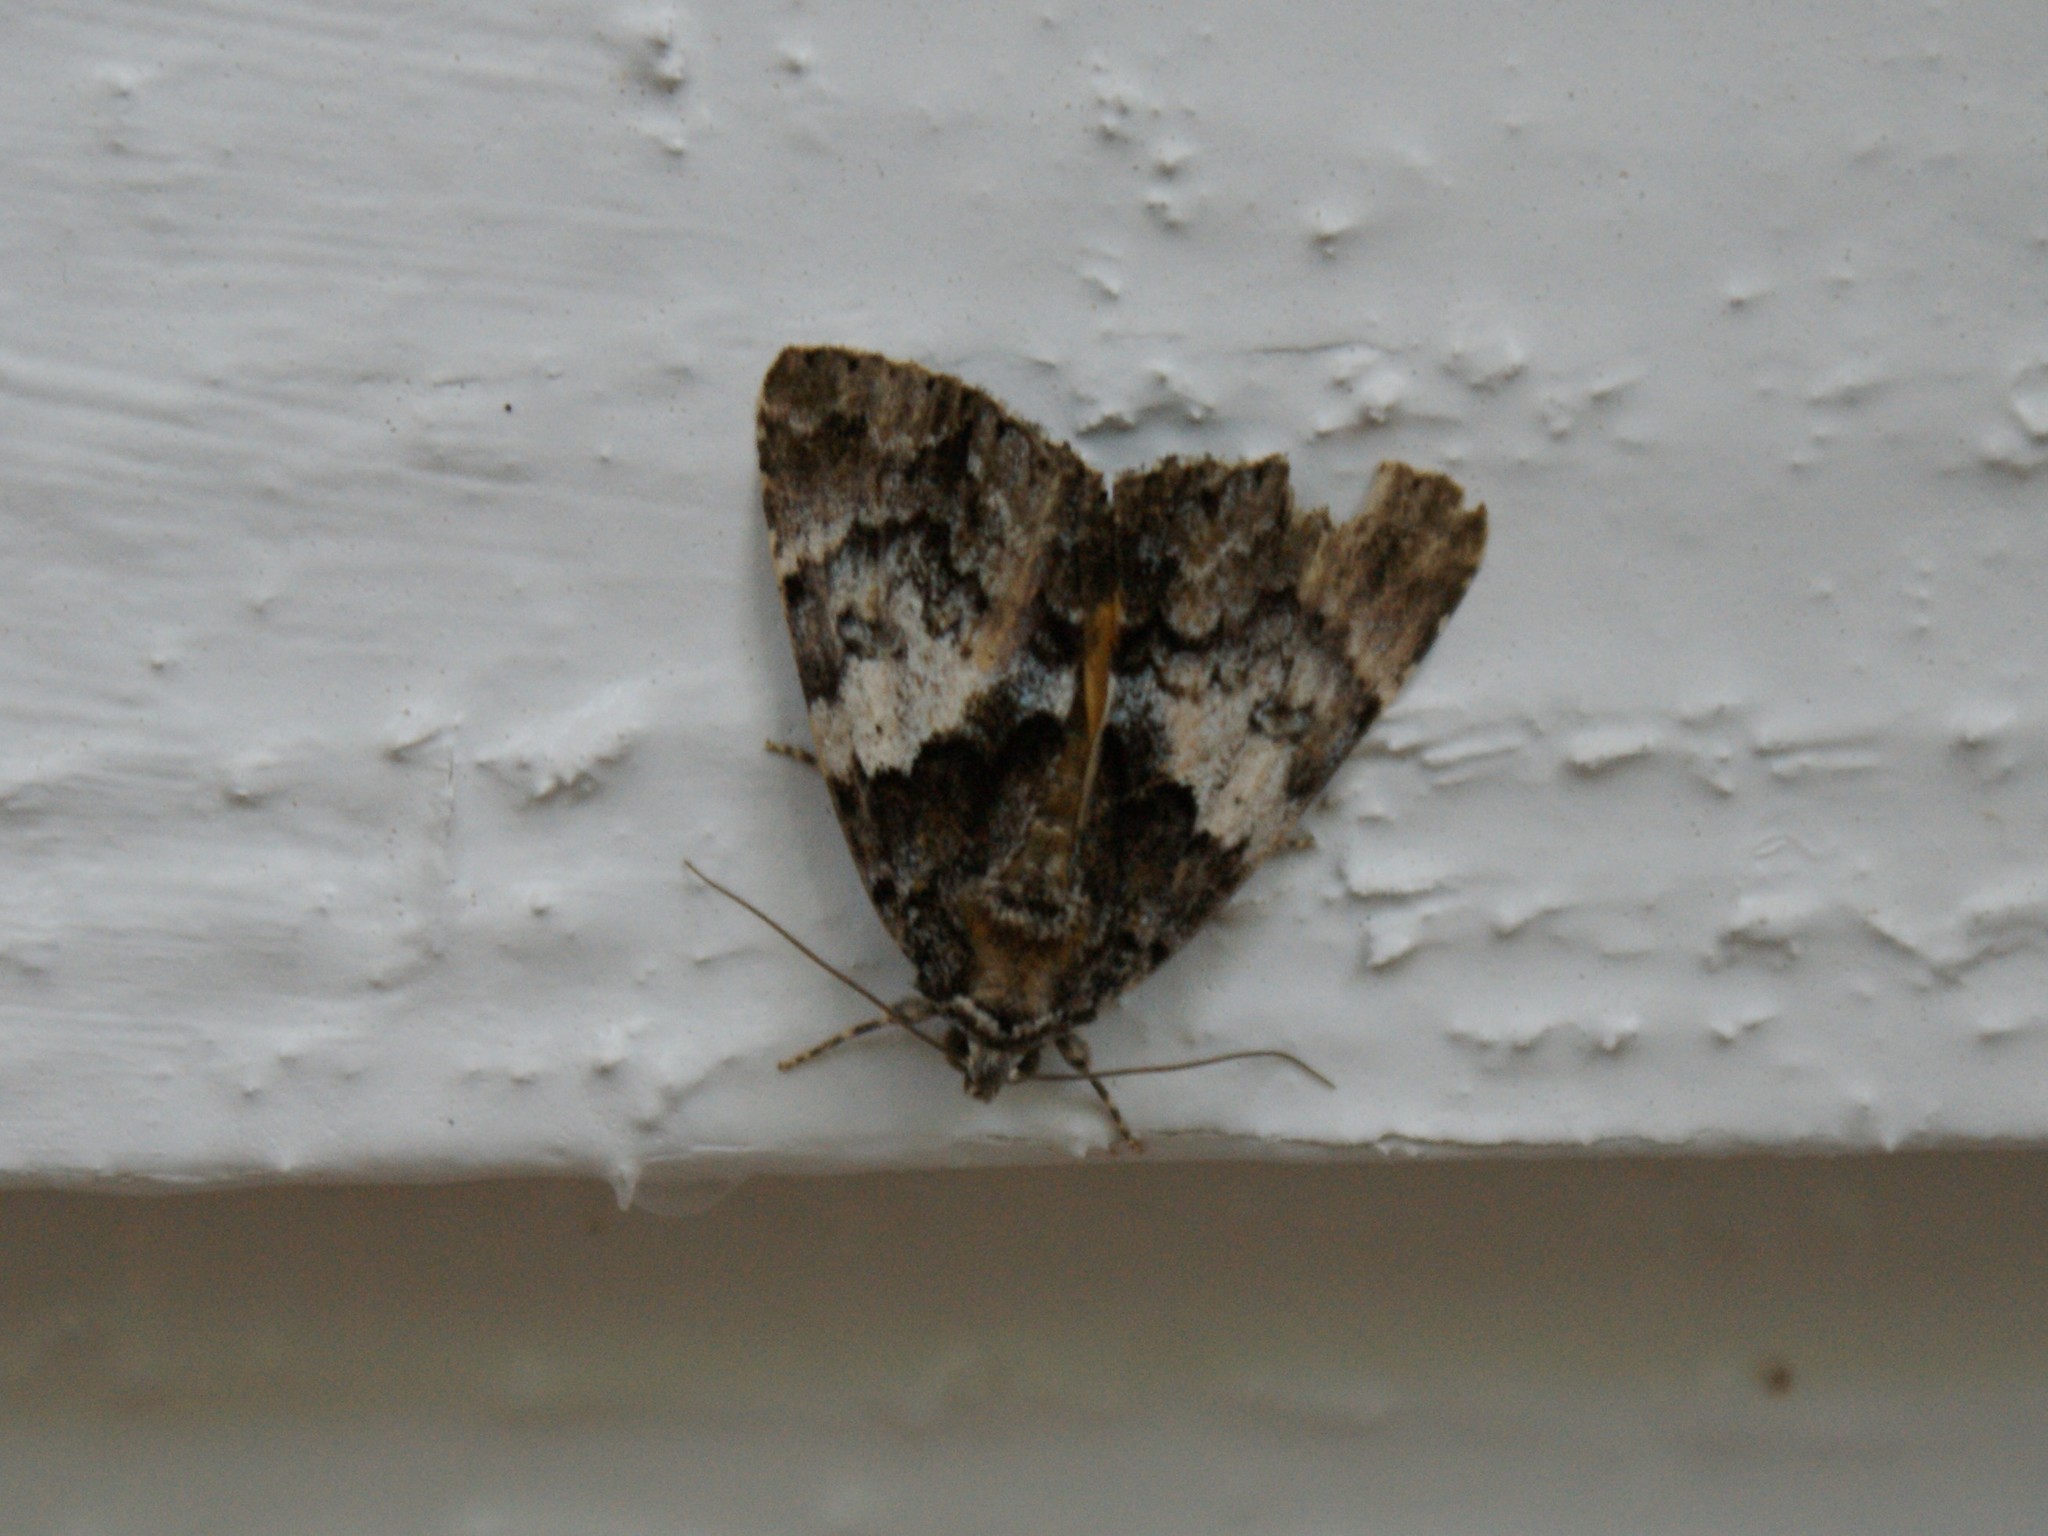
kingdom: Animalia
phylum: Arthropoda
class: Insecta
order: Lepidoptera
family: Erebidae
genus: Allotria
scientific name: Allotria elonympha
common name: False underwing
